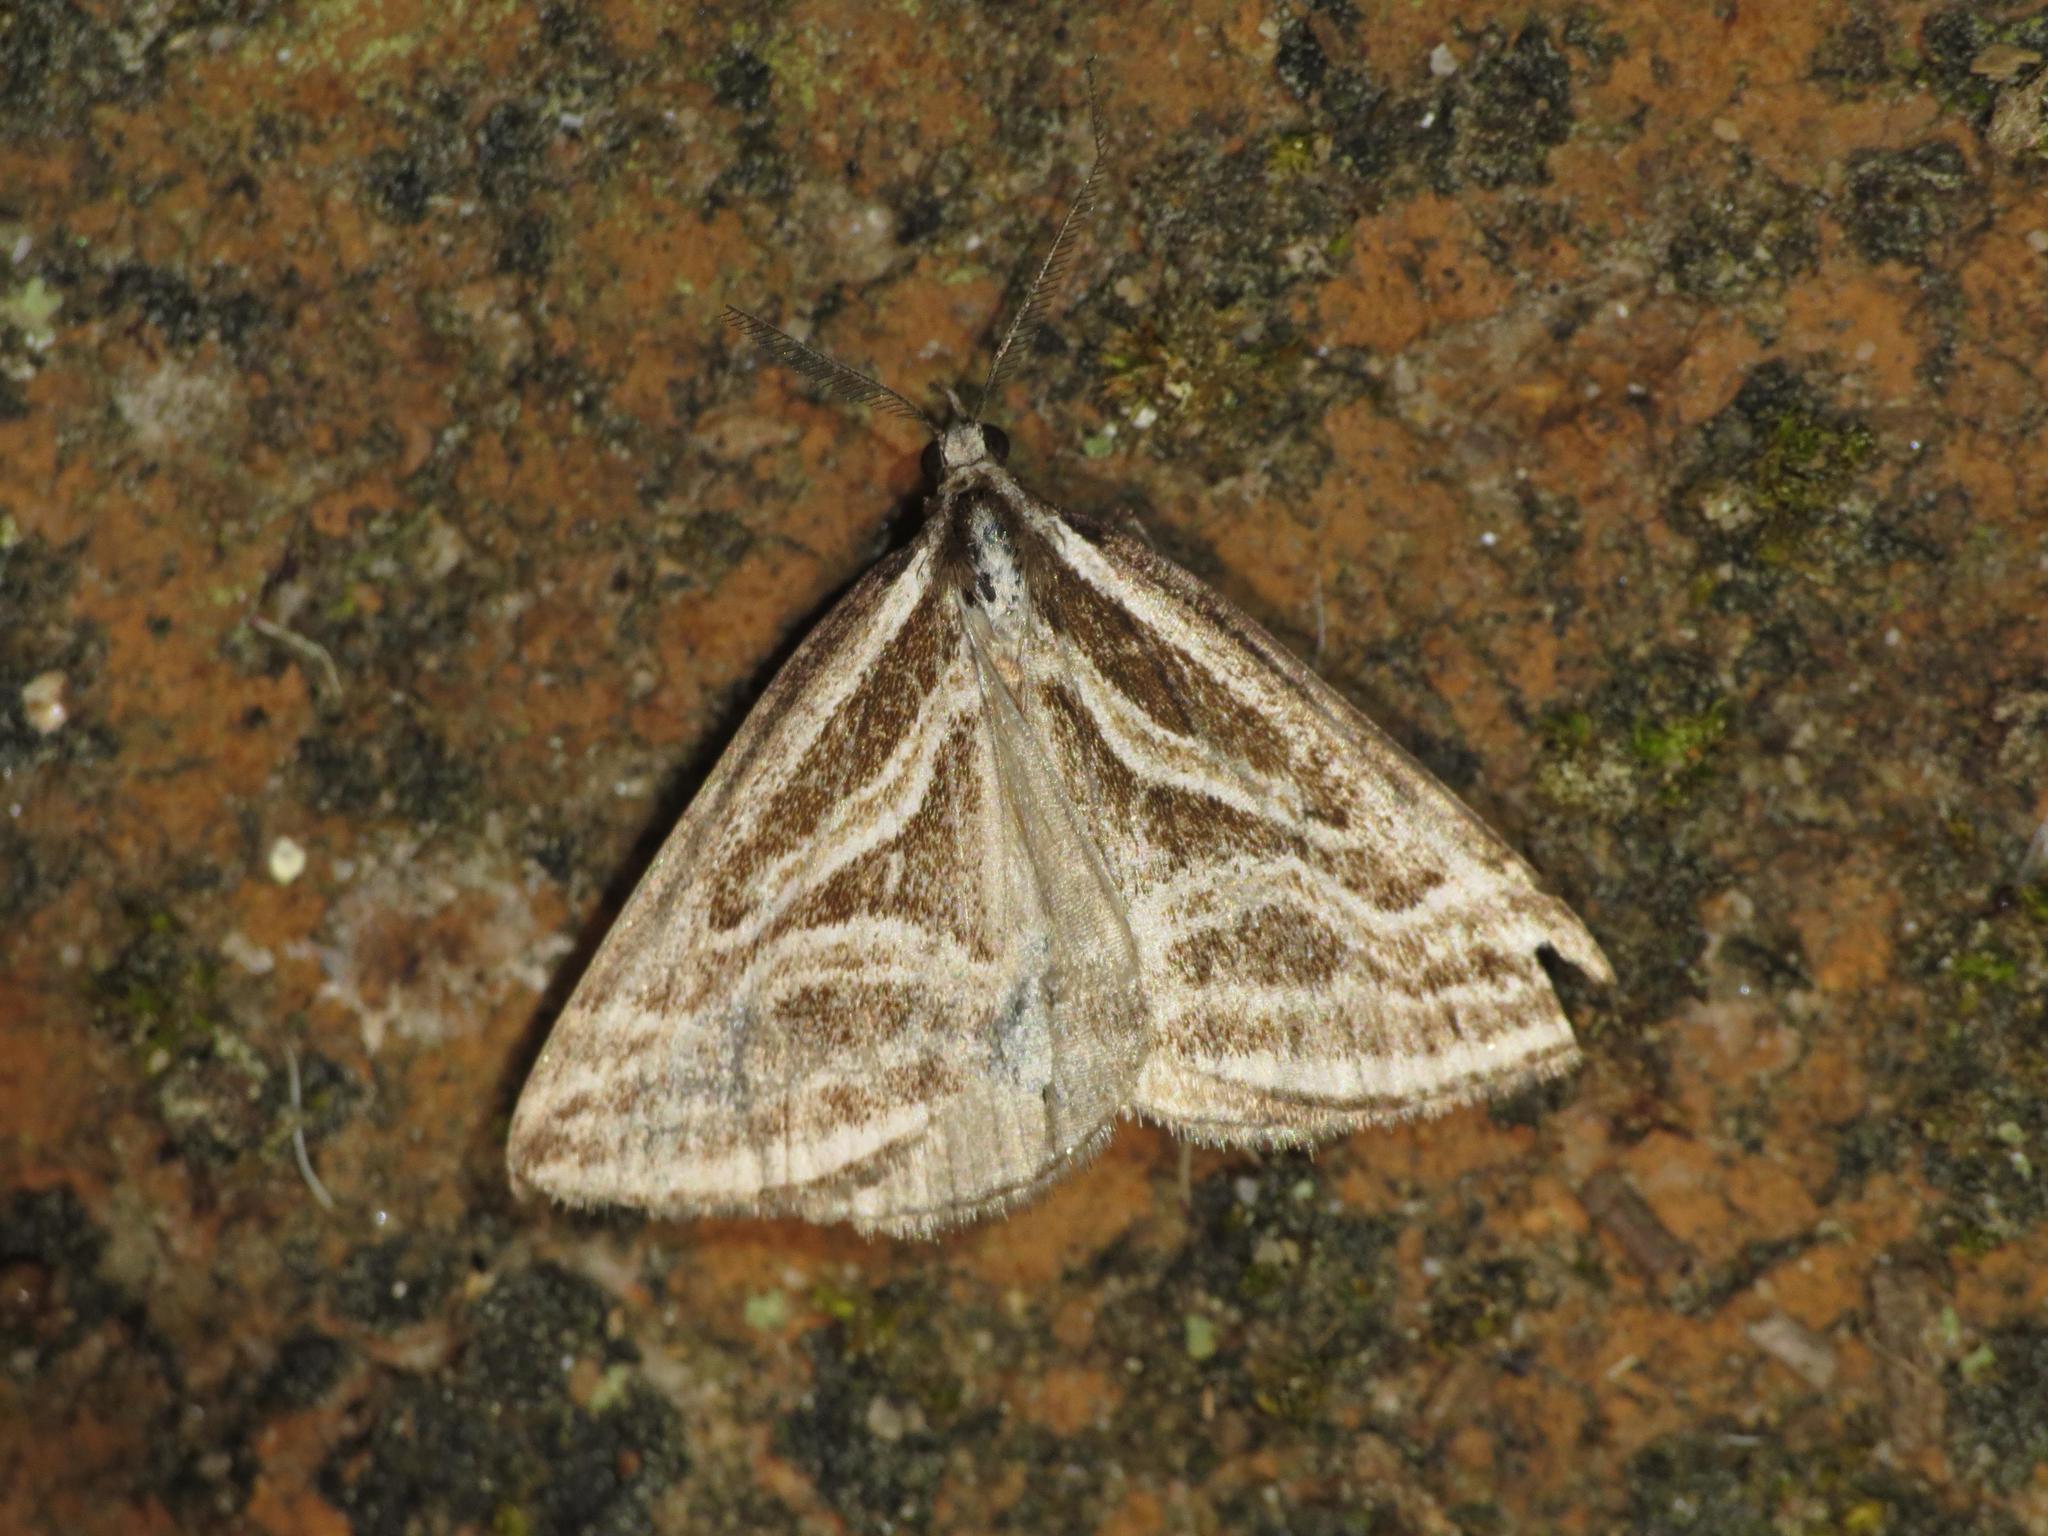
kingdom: Animalia
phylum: Arthropoda
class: Insecta
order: Lepidoptera
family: Geometridae
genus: Dichromodes
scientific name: Dichromodes confluaria
